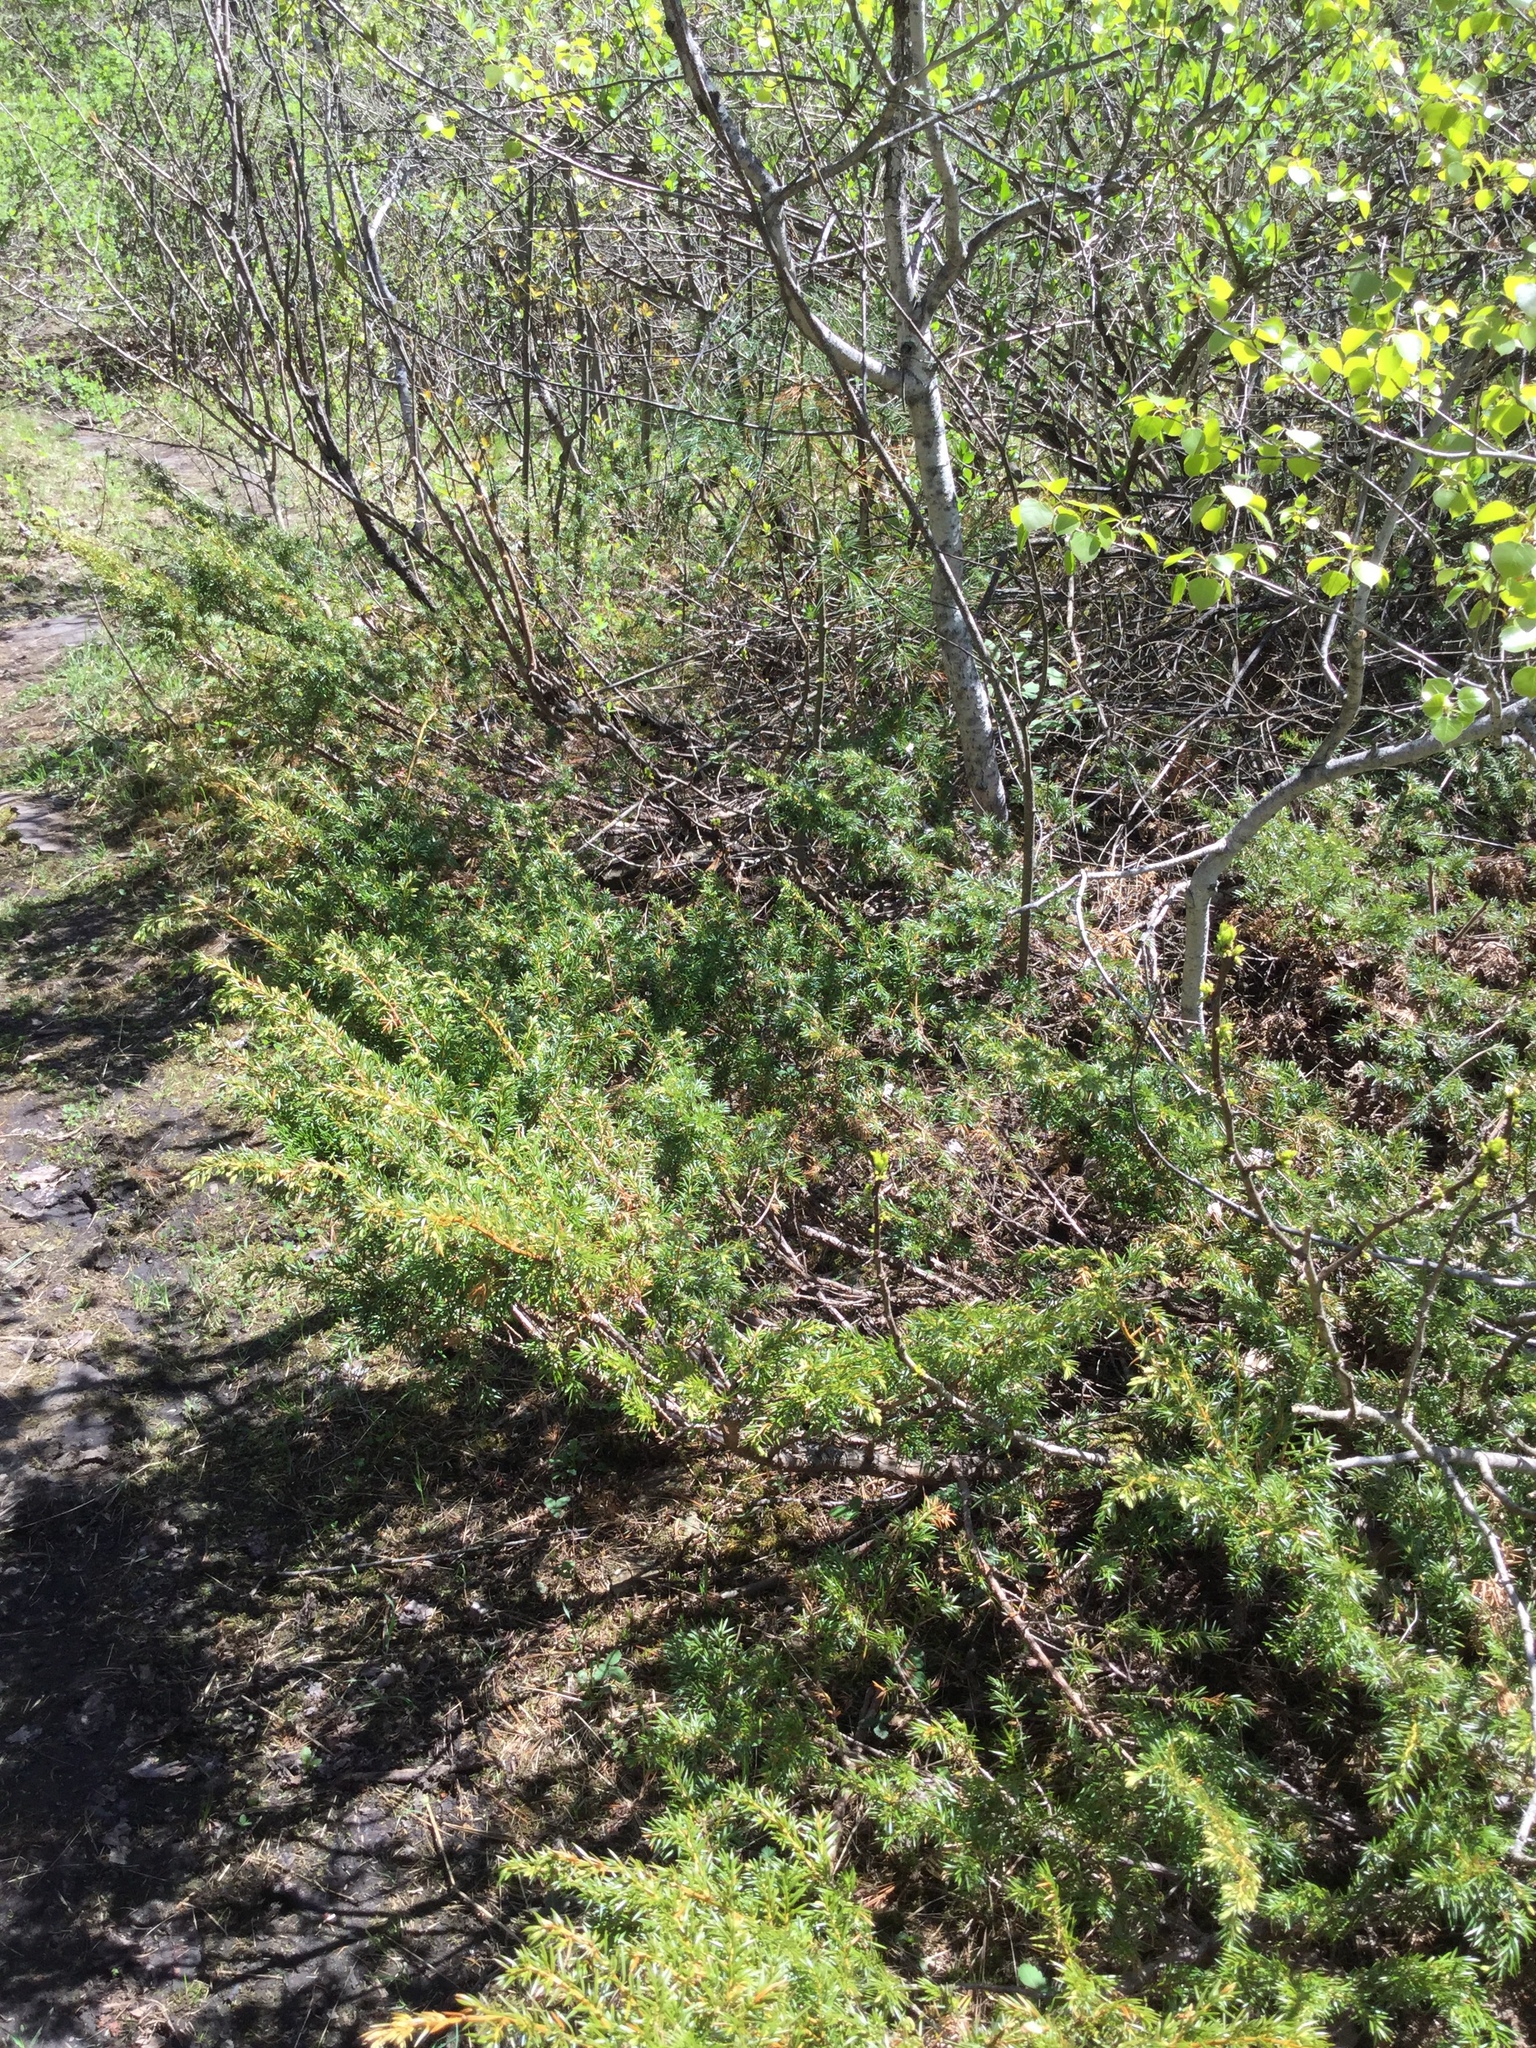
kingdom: Plantae
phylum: Tracheophyta
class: Pinopsida
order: Pinales
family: Cupressaceae
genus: Juniperus
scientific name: Juniperus communis
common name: Common juniper
